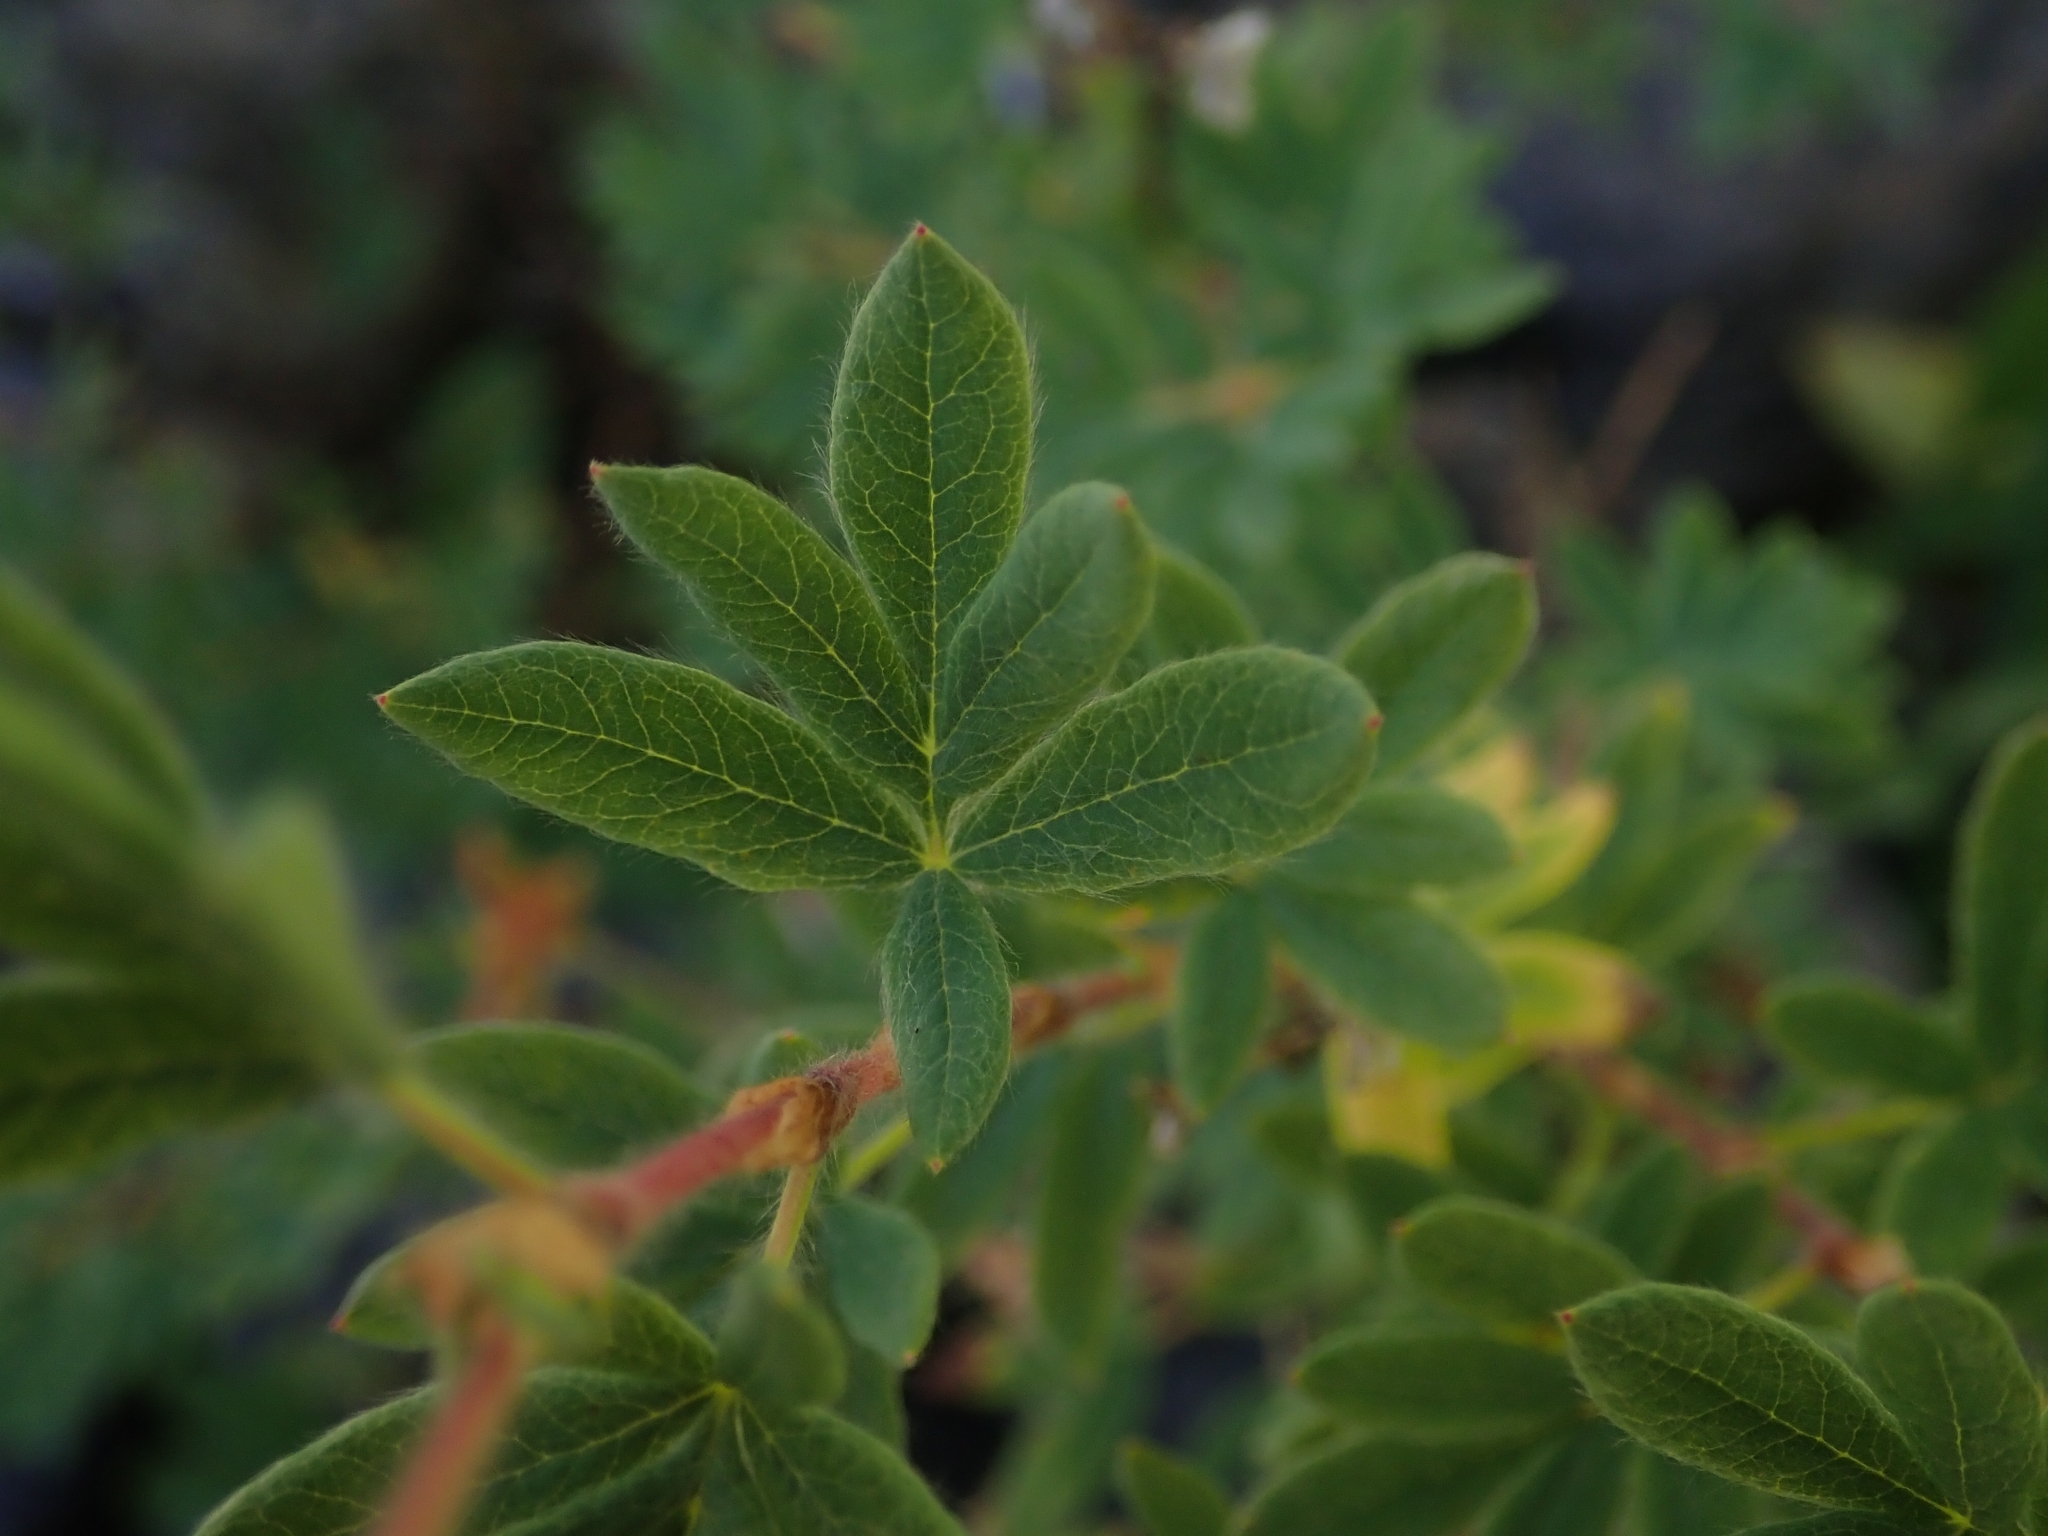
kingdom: Plantae
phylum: Tracheophyta
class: Magnoliopsida
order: Rosales
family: Rosaceae
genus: Dasiphora
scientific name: Dasiphora fruticosa
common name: Shrubby cinquefoil
